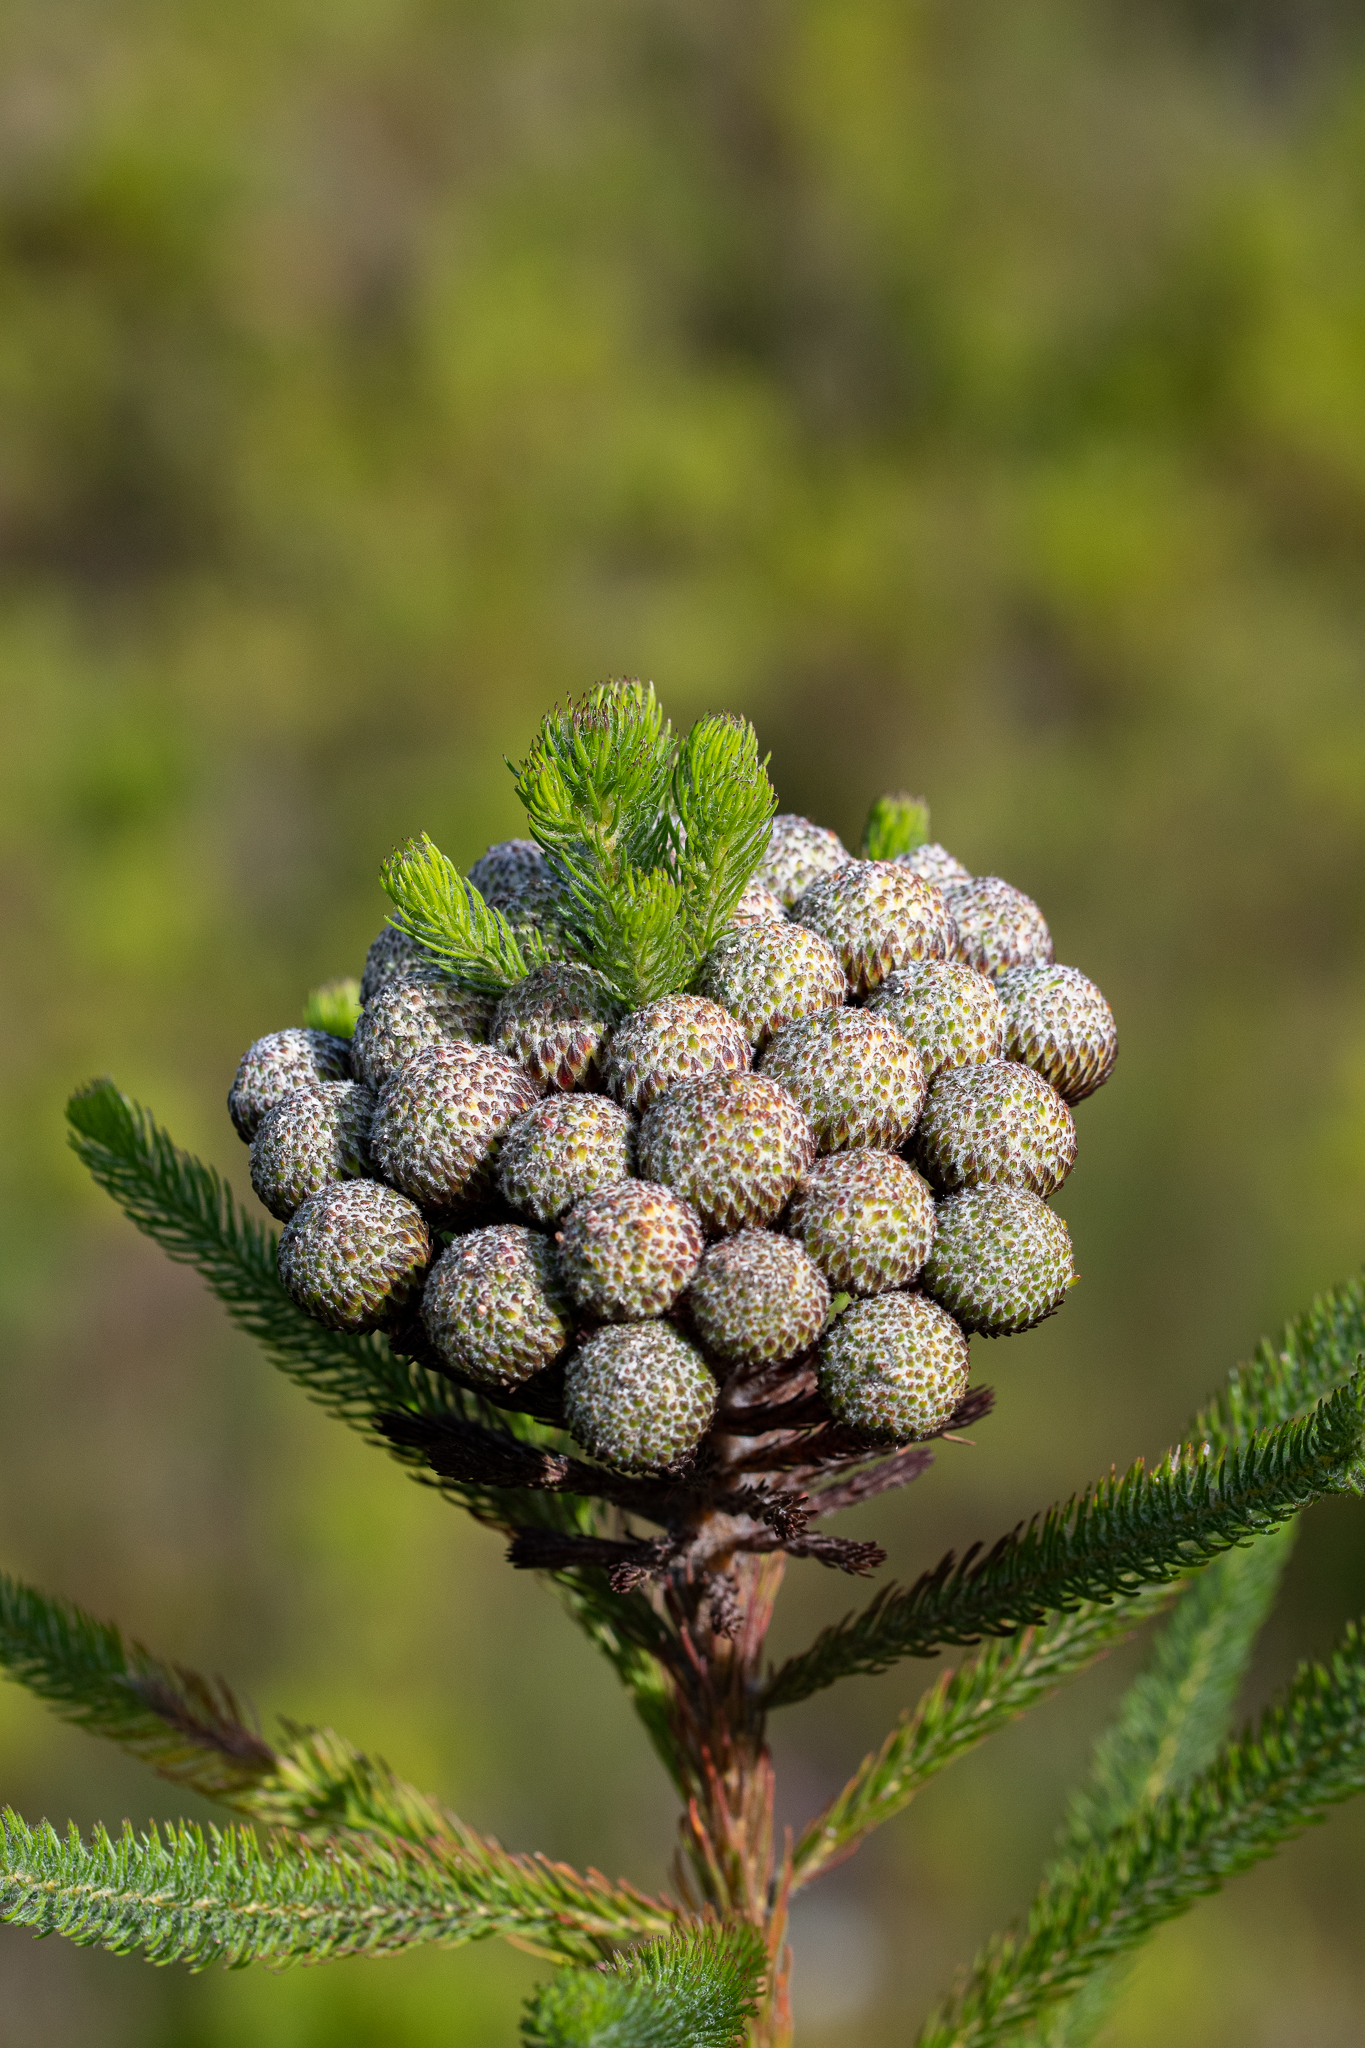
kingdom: Plantae
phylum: Tracheophyta
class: Magnoliopsida
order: Bruniales
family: Bruniaceae
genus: Berzelia
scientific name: Berzelia albiflora
